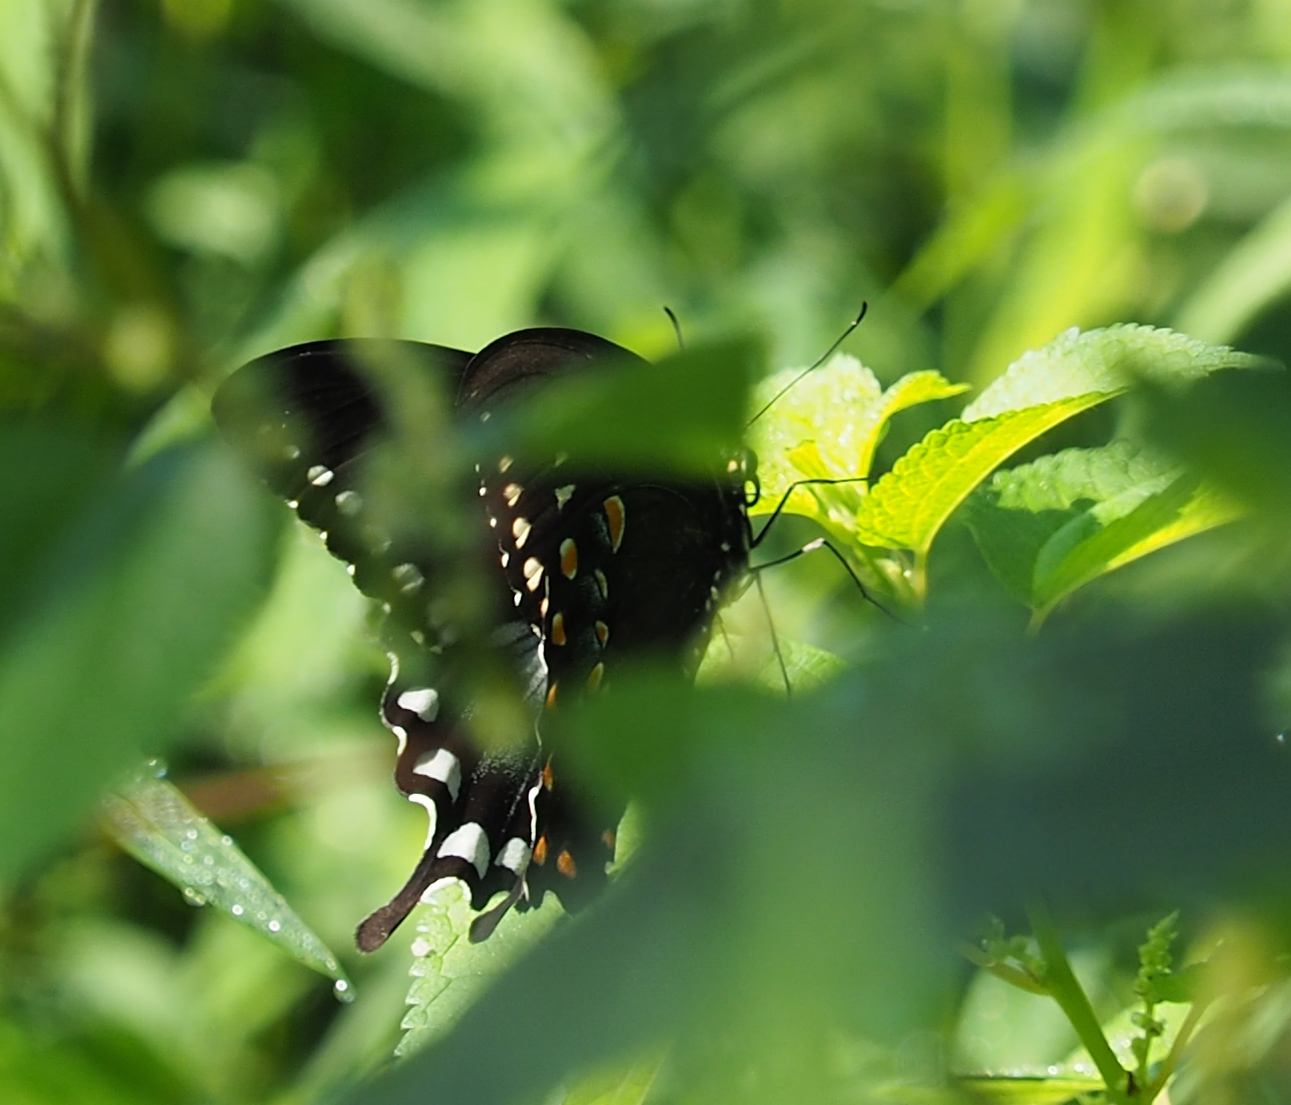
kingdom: Animalia
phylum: Arthropoda
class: Insecta
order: Lepidoptera
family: Papilionidae
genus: Papilio
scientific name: Papilio troilus
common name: Spicebush swallowtail
